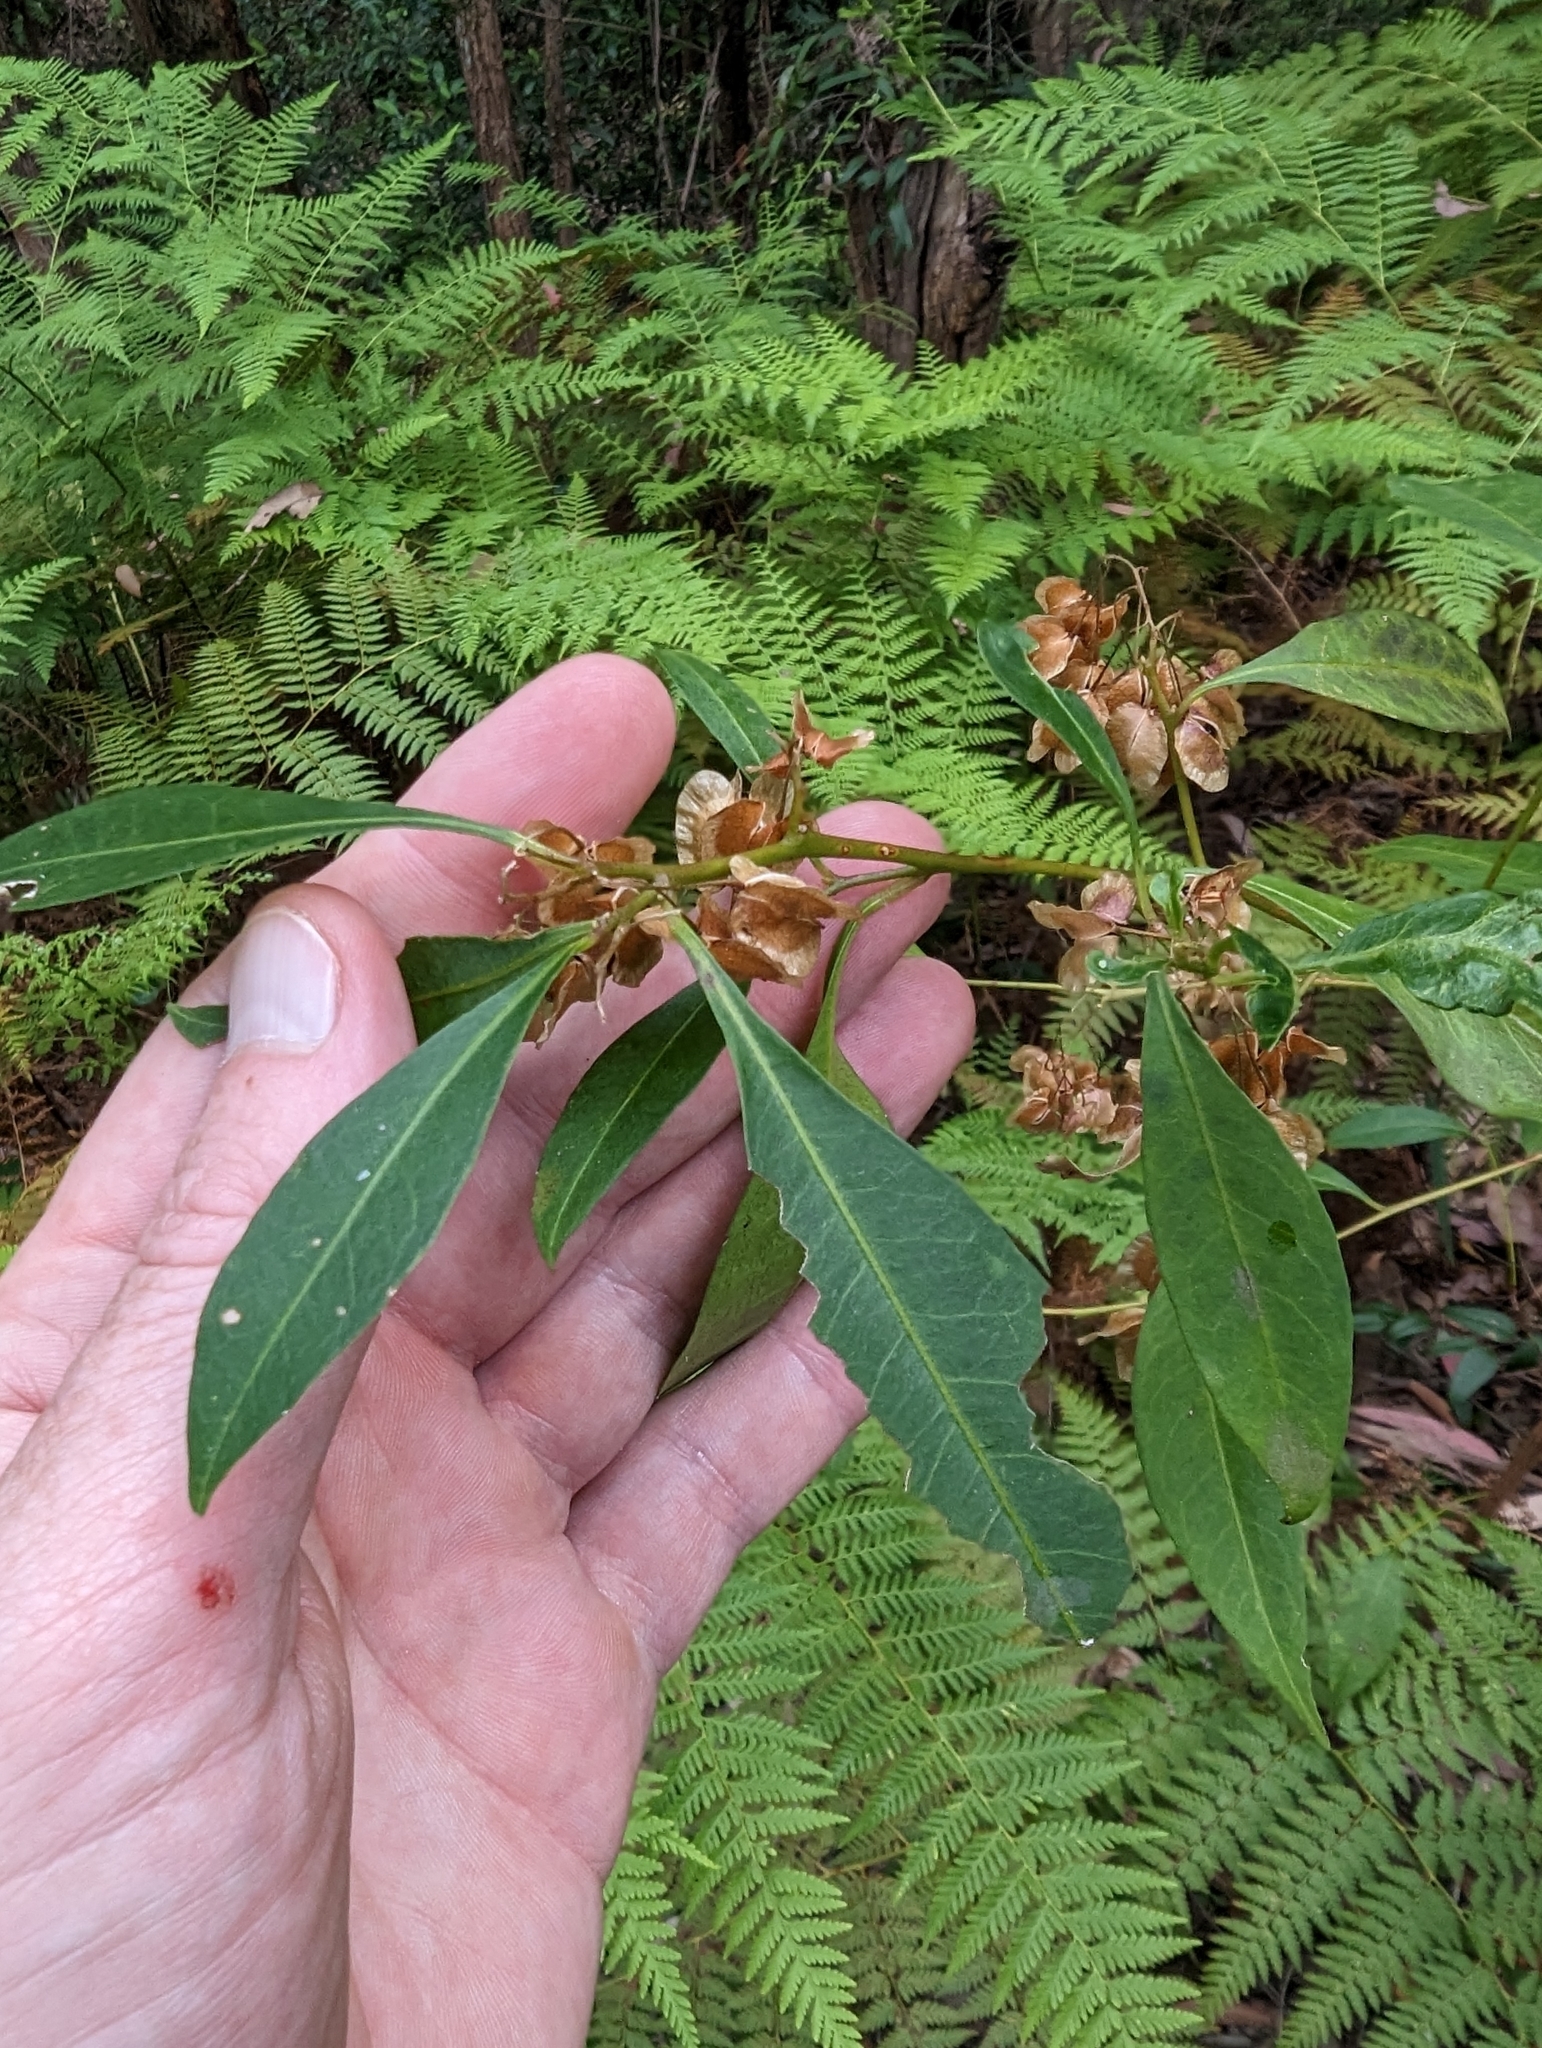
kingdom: Plantae
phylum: Tracheophyta
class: Magnoliopsida
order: Sapindales
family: Sapindaceae
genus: Dodonaea
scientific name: Dodonaea triquetra
